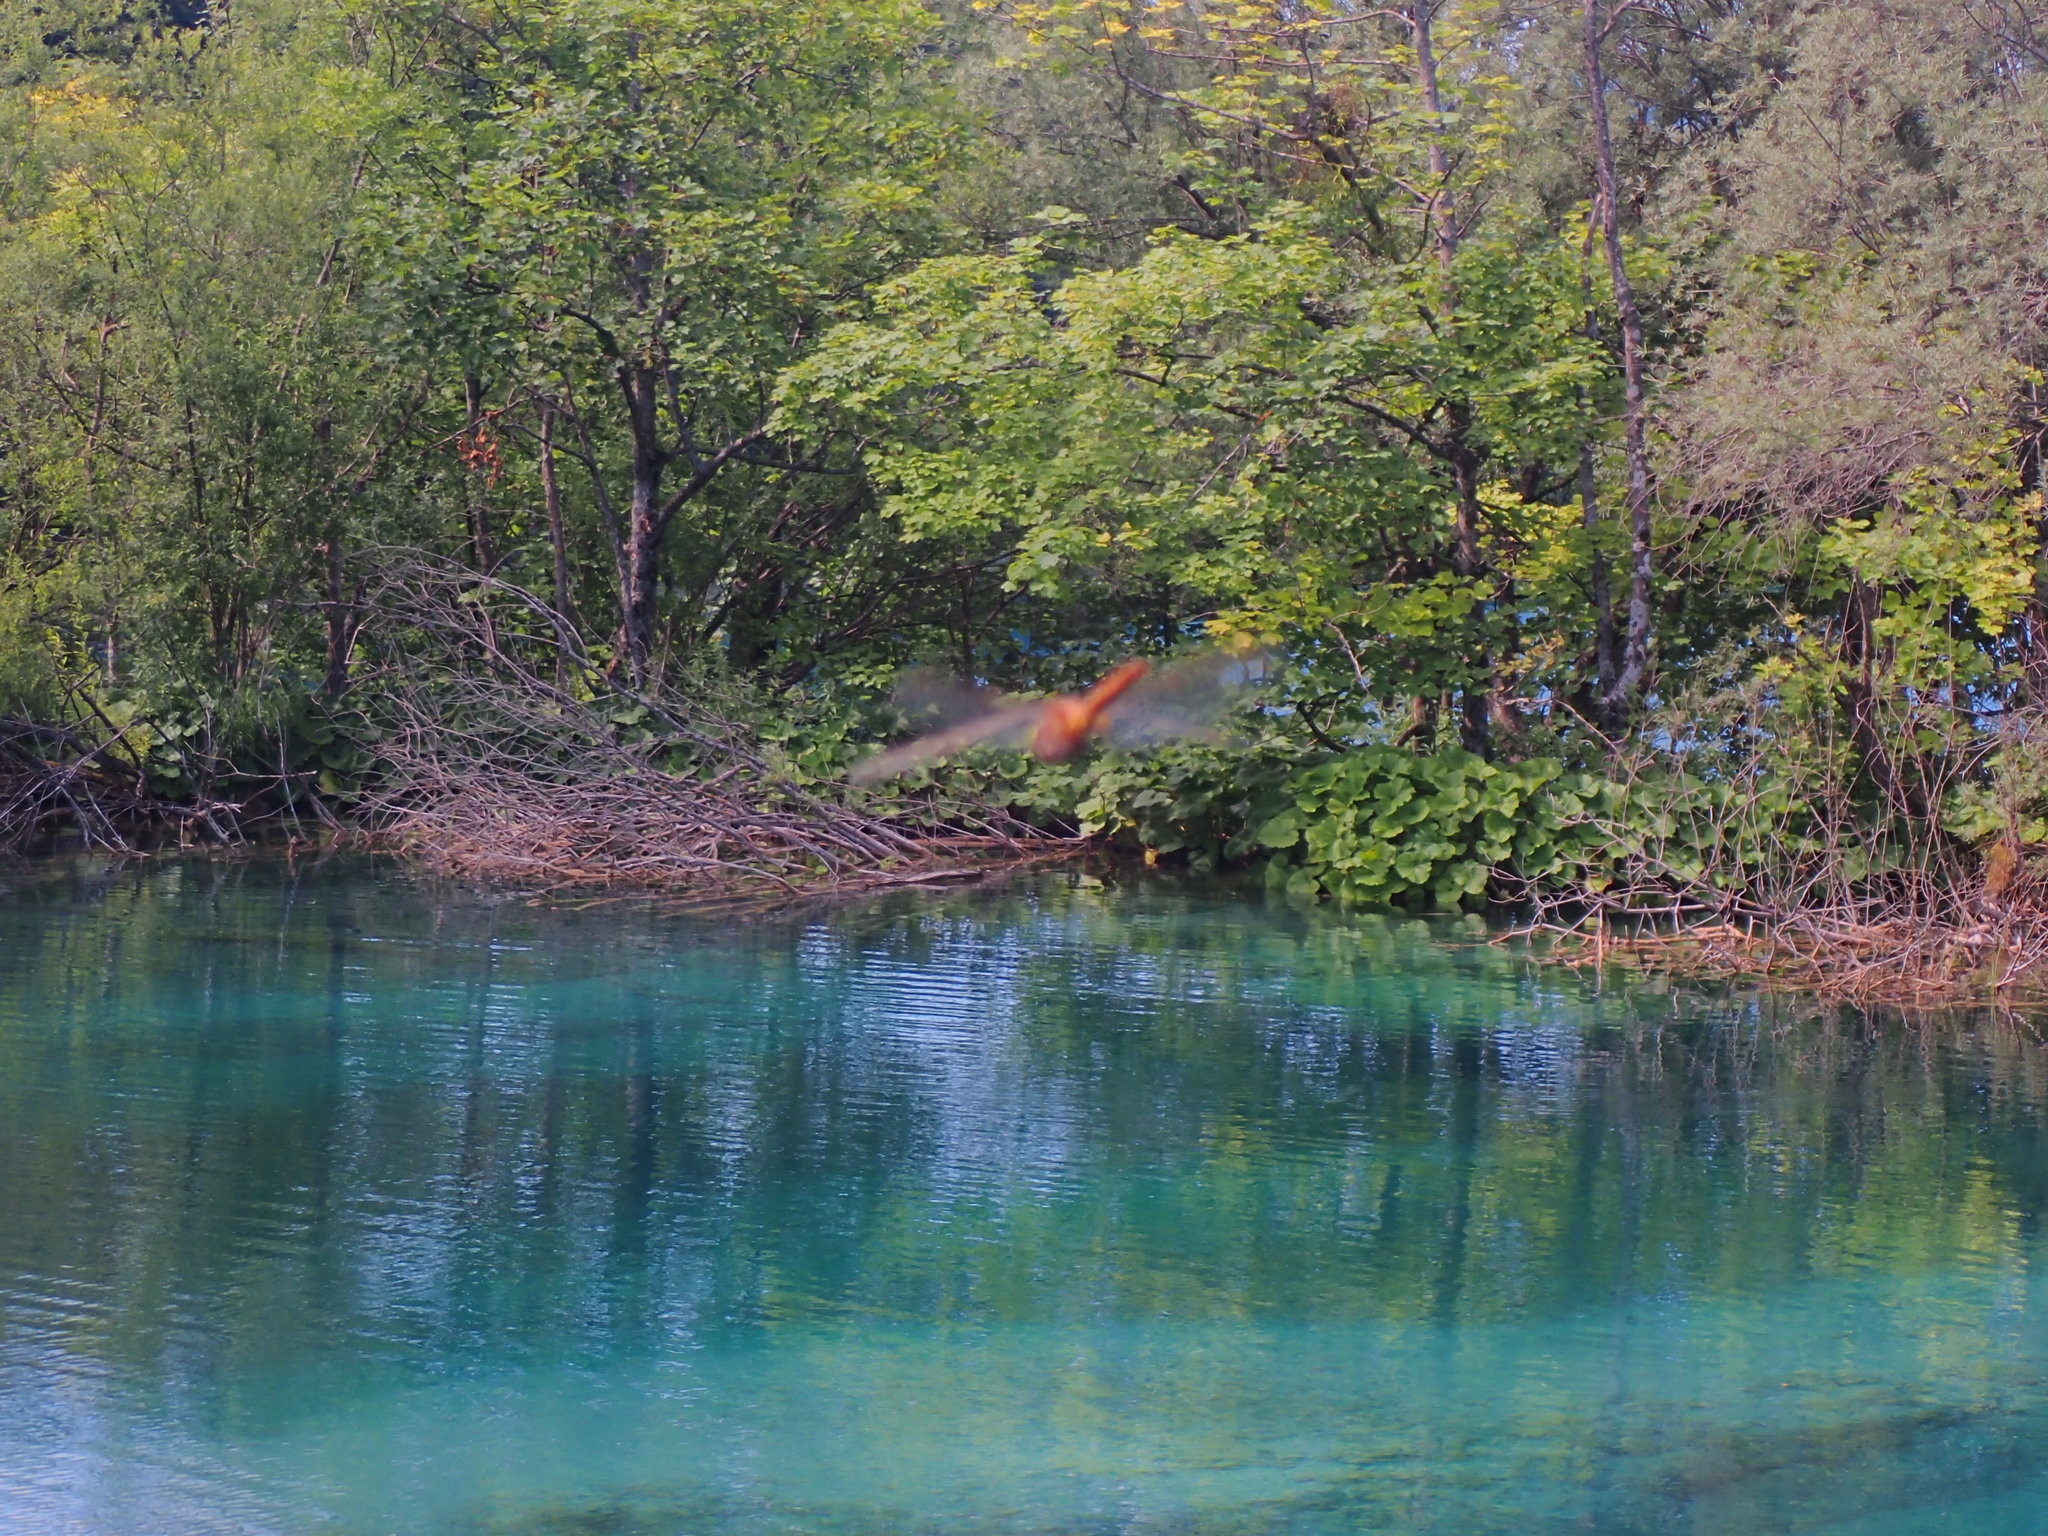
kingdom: Animalia
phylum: Arthropoda
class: Insecta
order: Odonata
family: Aeshnidae
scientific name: Aeshnidae
